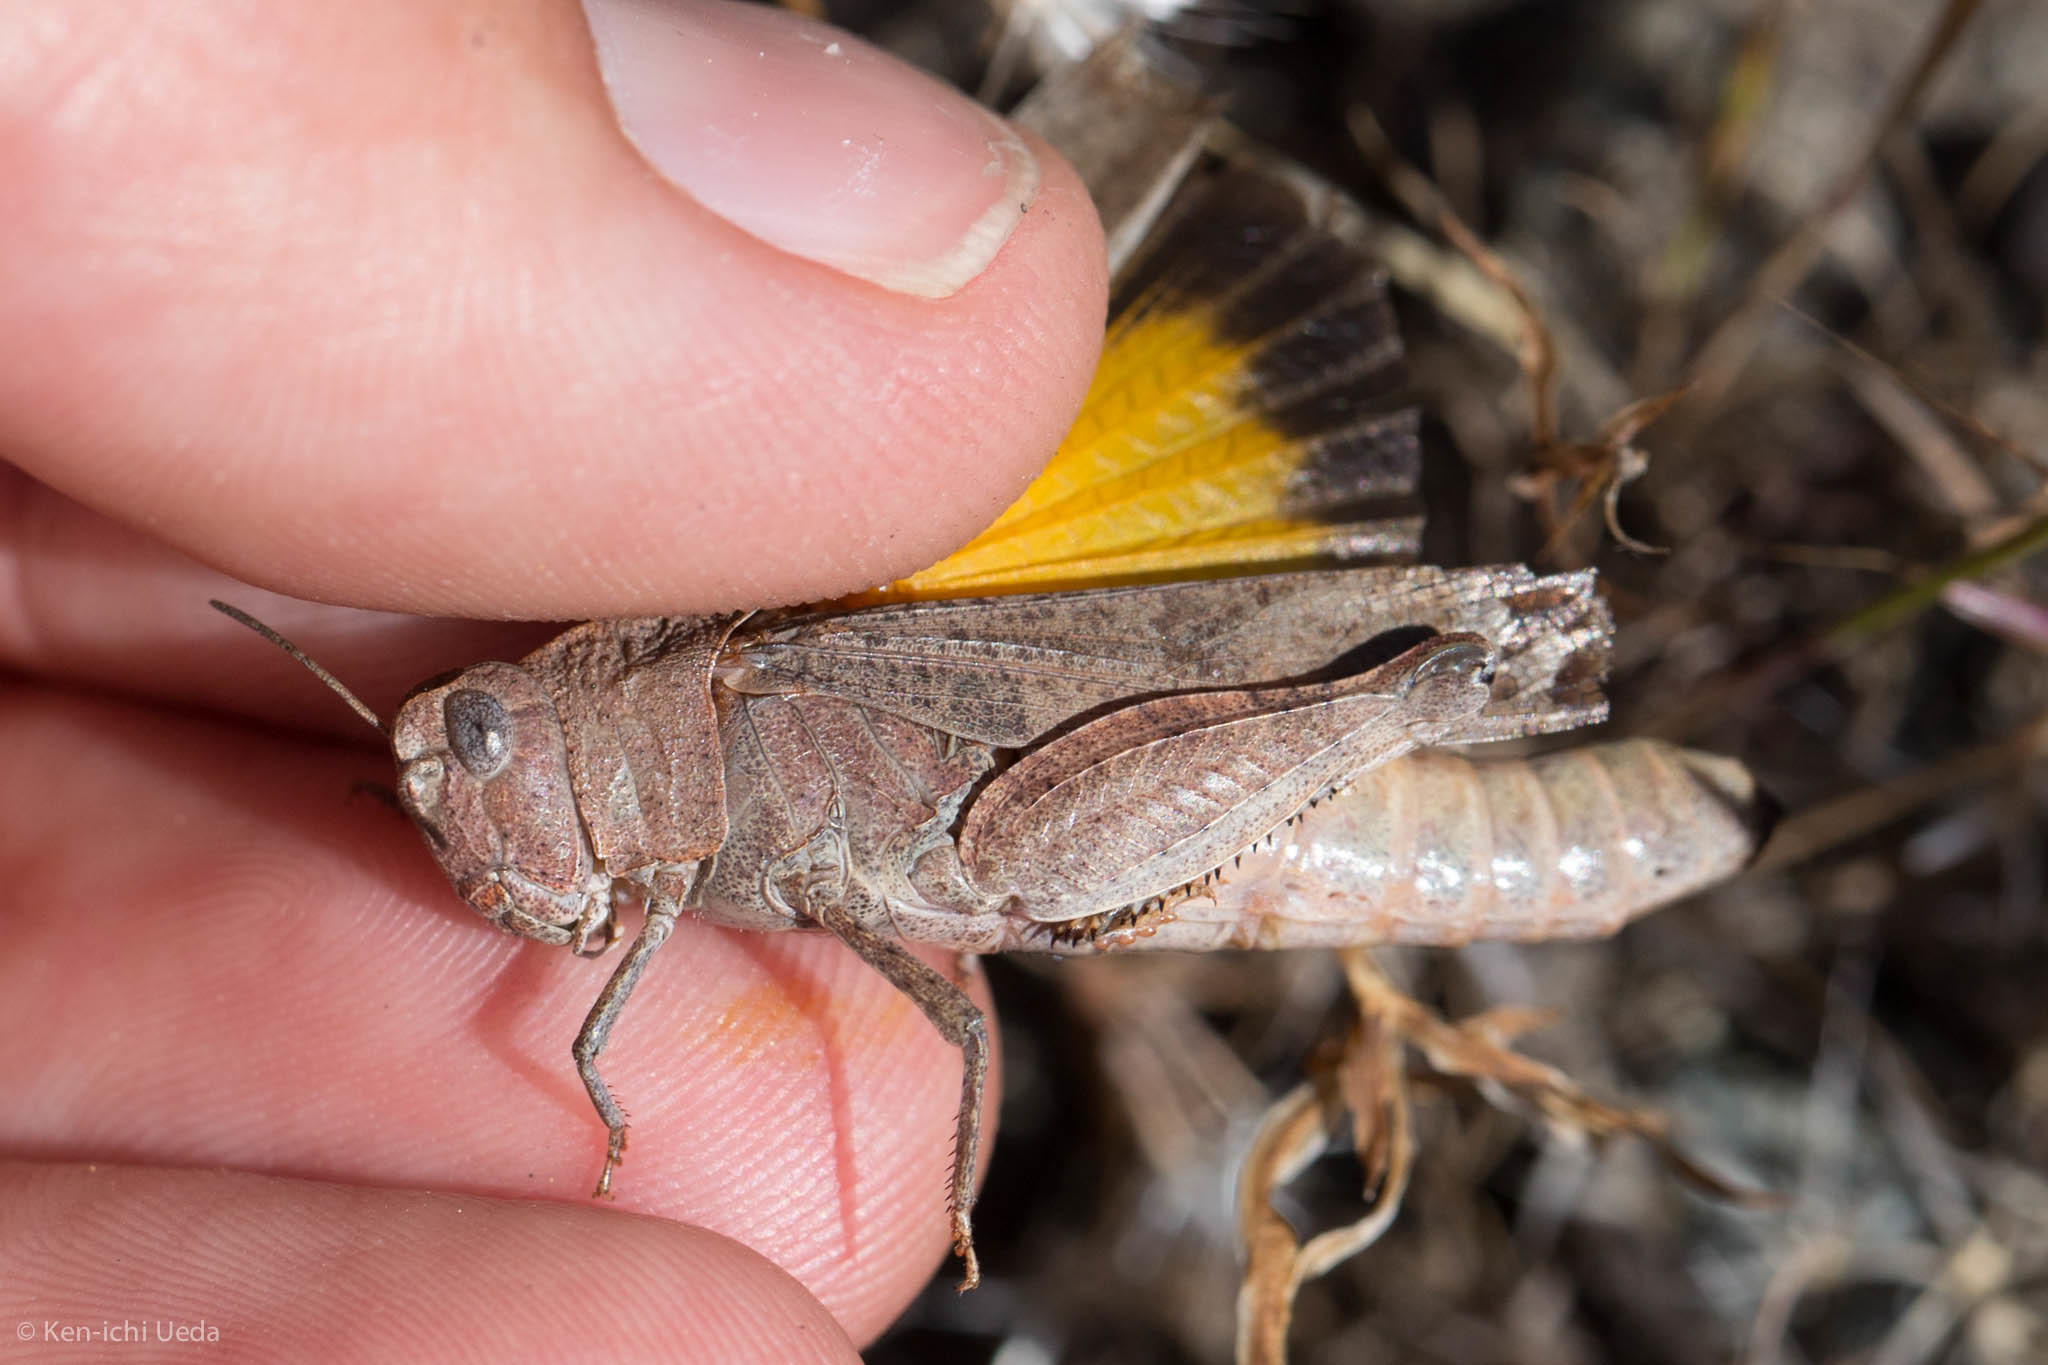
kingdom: Animalia
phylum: Arthropoda
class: Insecta
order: Orthoptera
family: Acrididae
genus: Arphia
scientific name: Arphia behrensi
